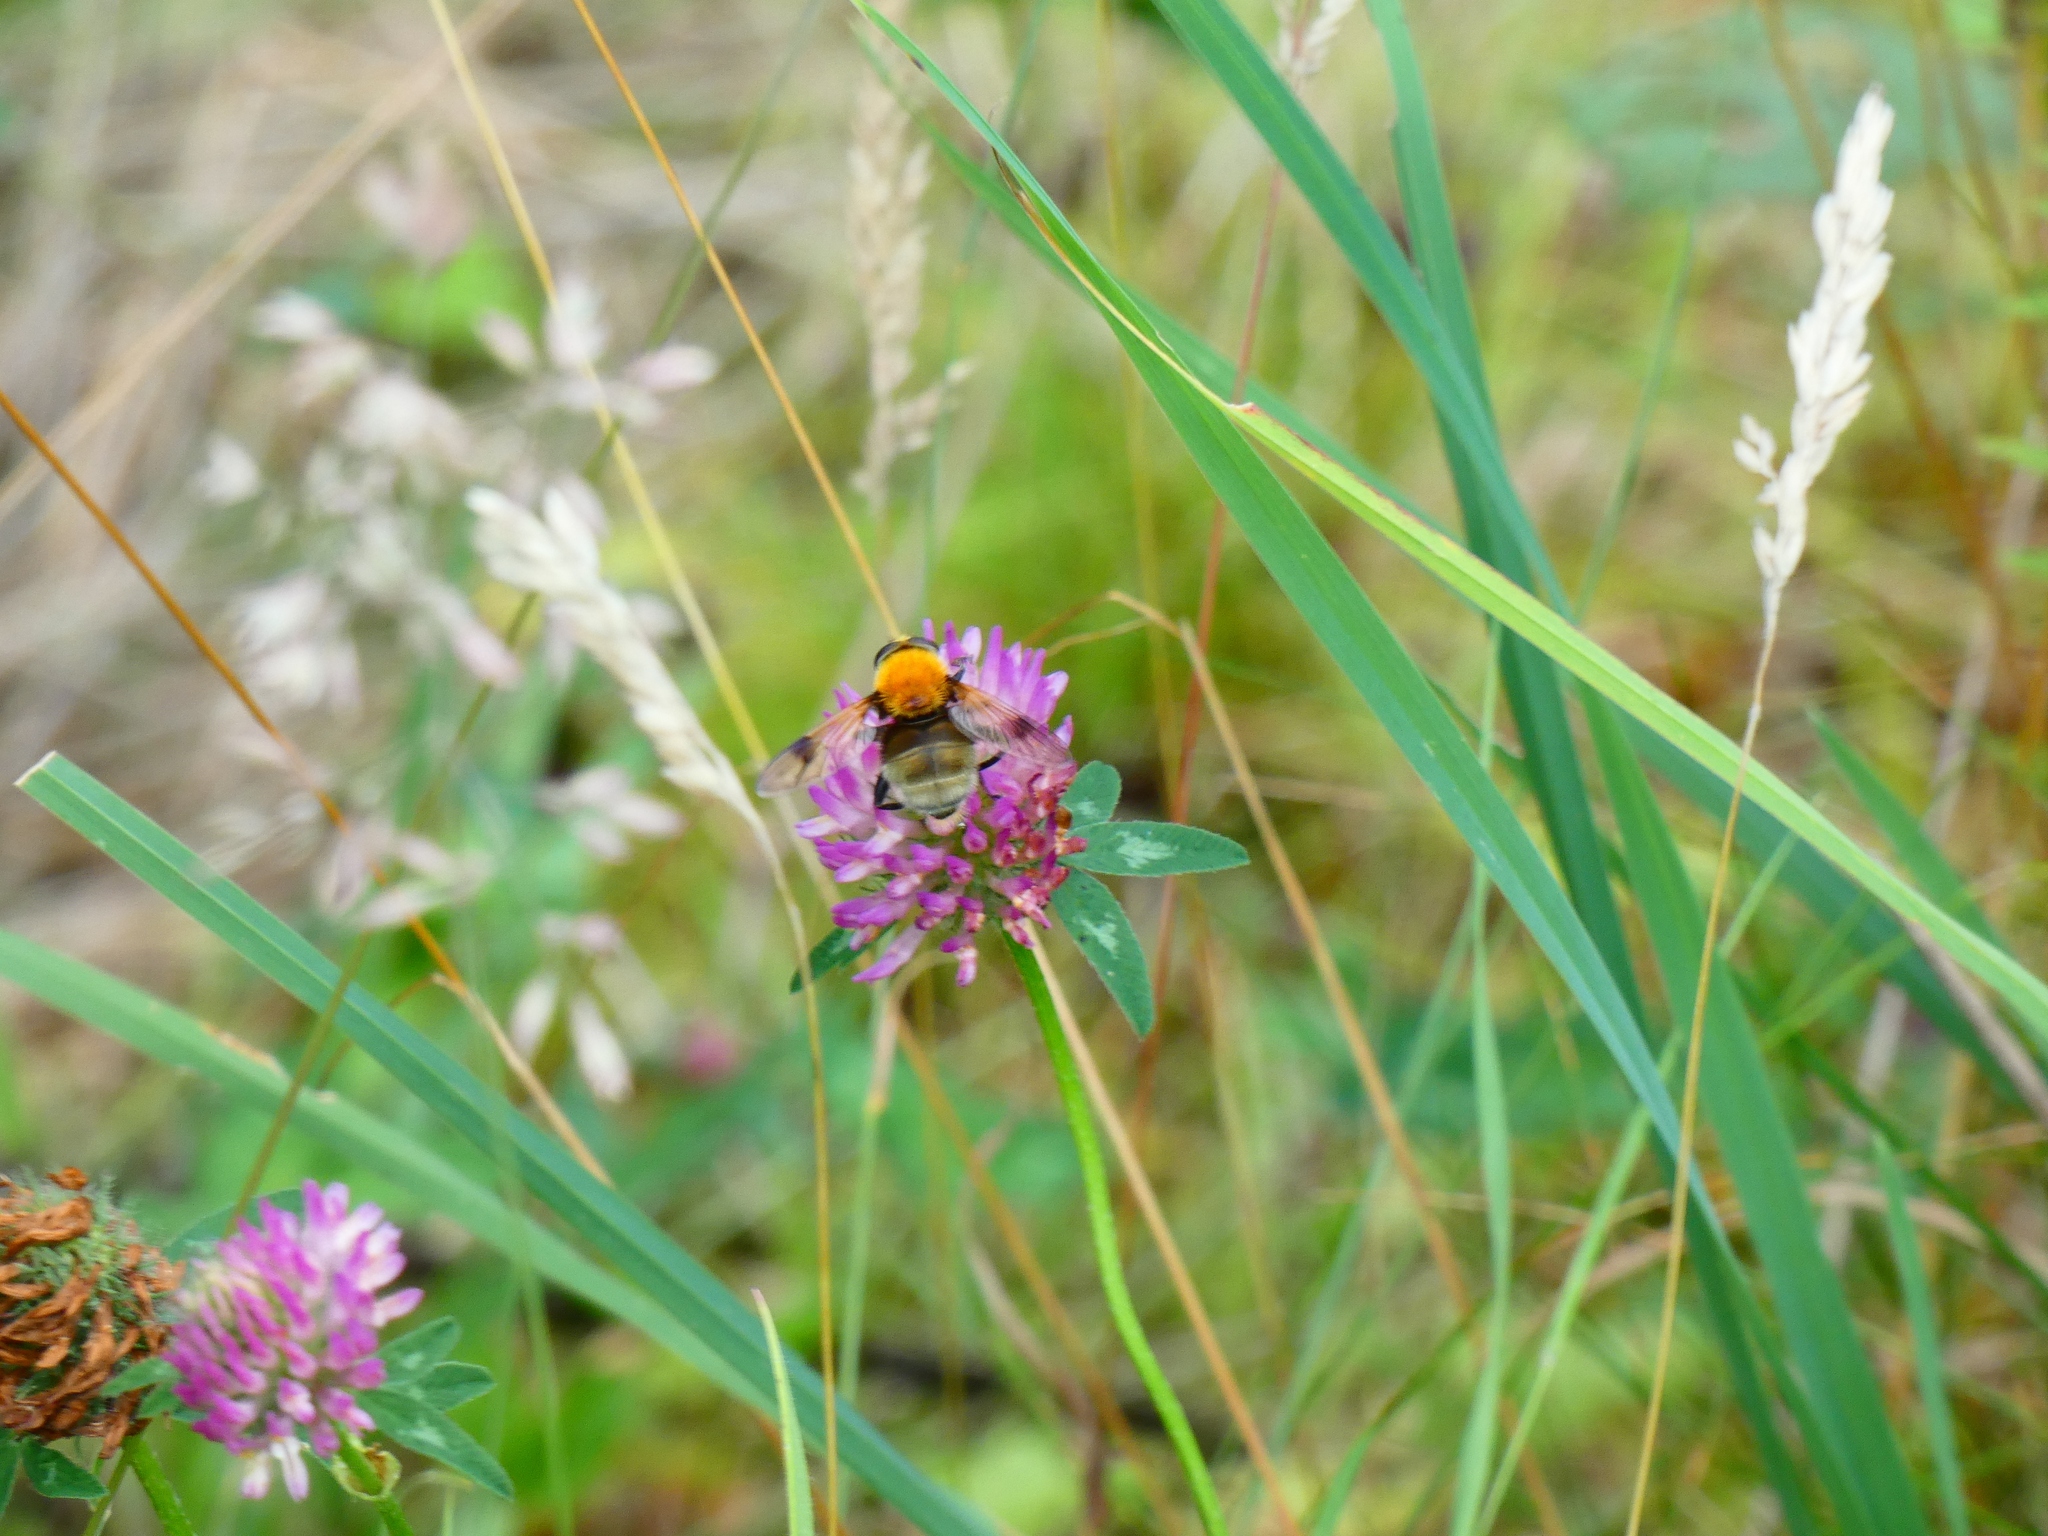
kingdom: Animalia
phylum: Arthropoda
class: Insecta
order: Diptera
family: Syrphidae
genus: Sericomyia
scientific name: Sericomyia superbiens
